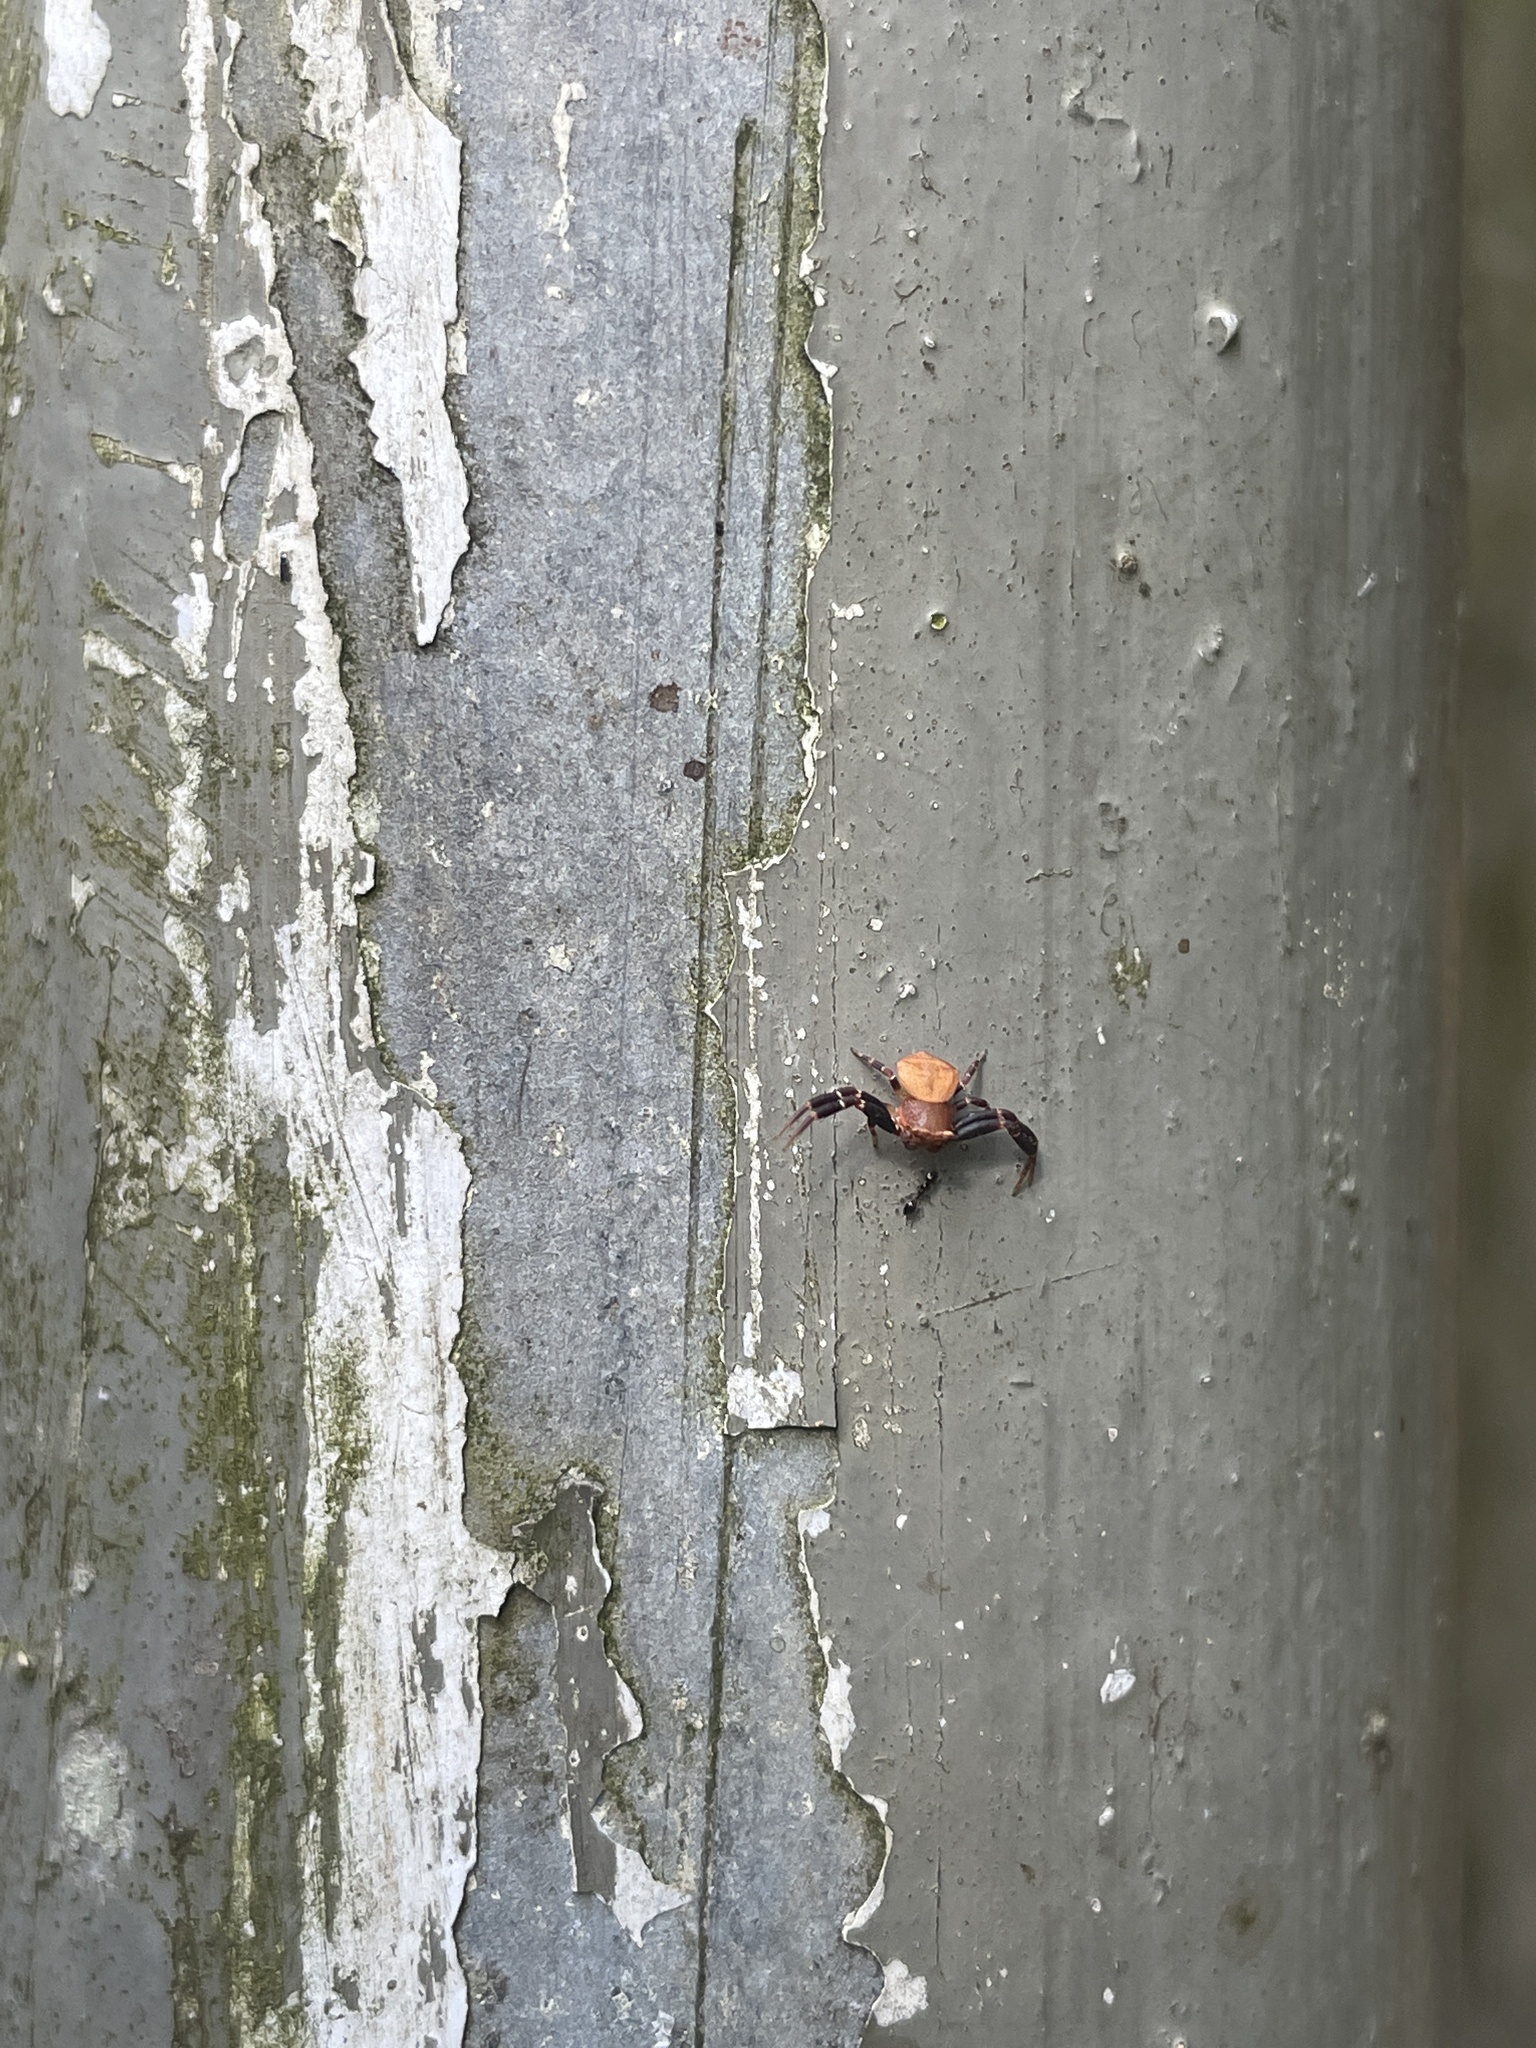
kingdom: Animalia
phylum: Arthropoda
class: Arachnida
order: Araneae
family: Thomisidae
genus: Thomisus
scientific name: Thomisus labefactus
